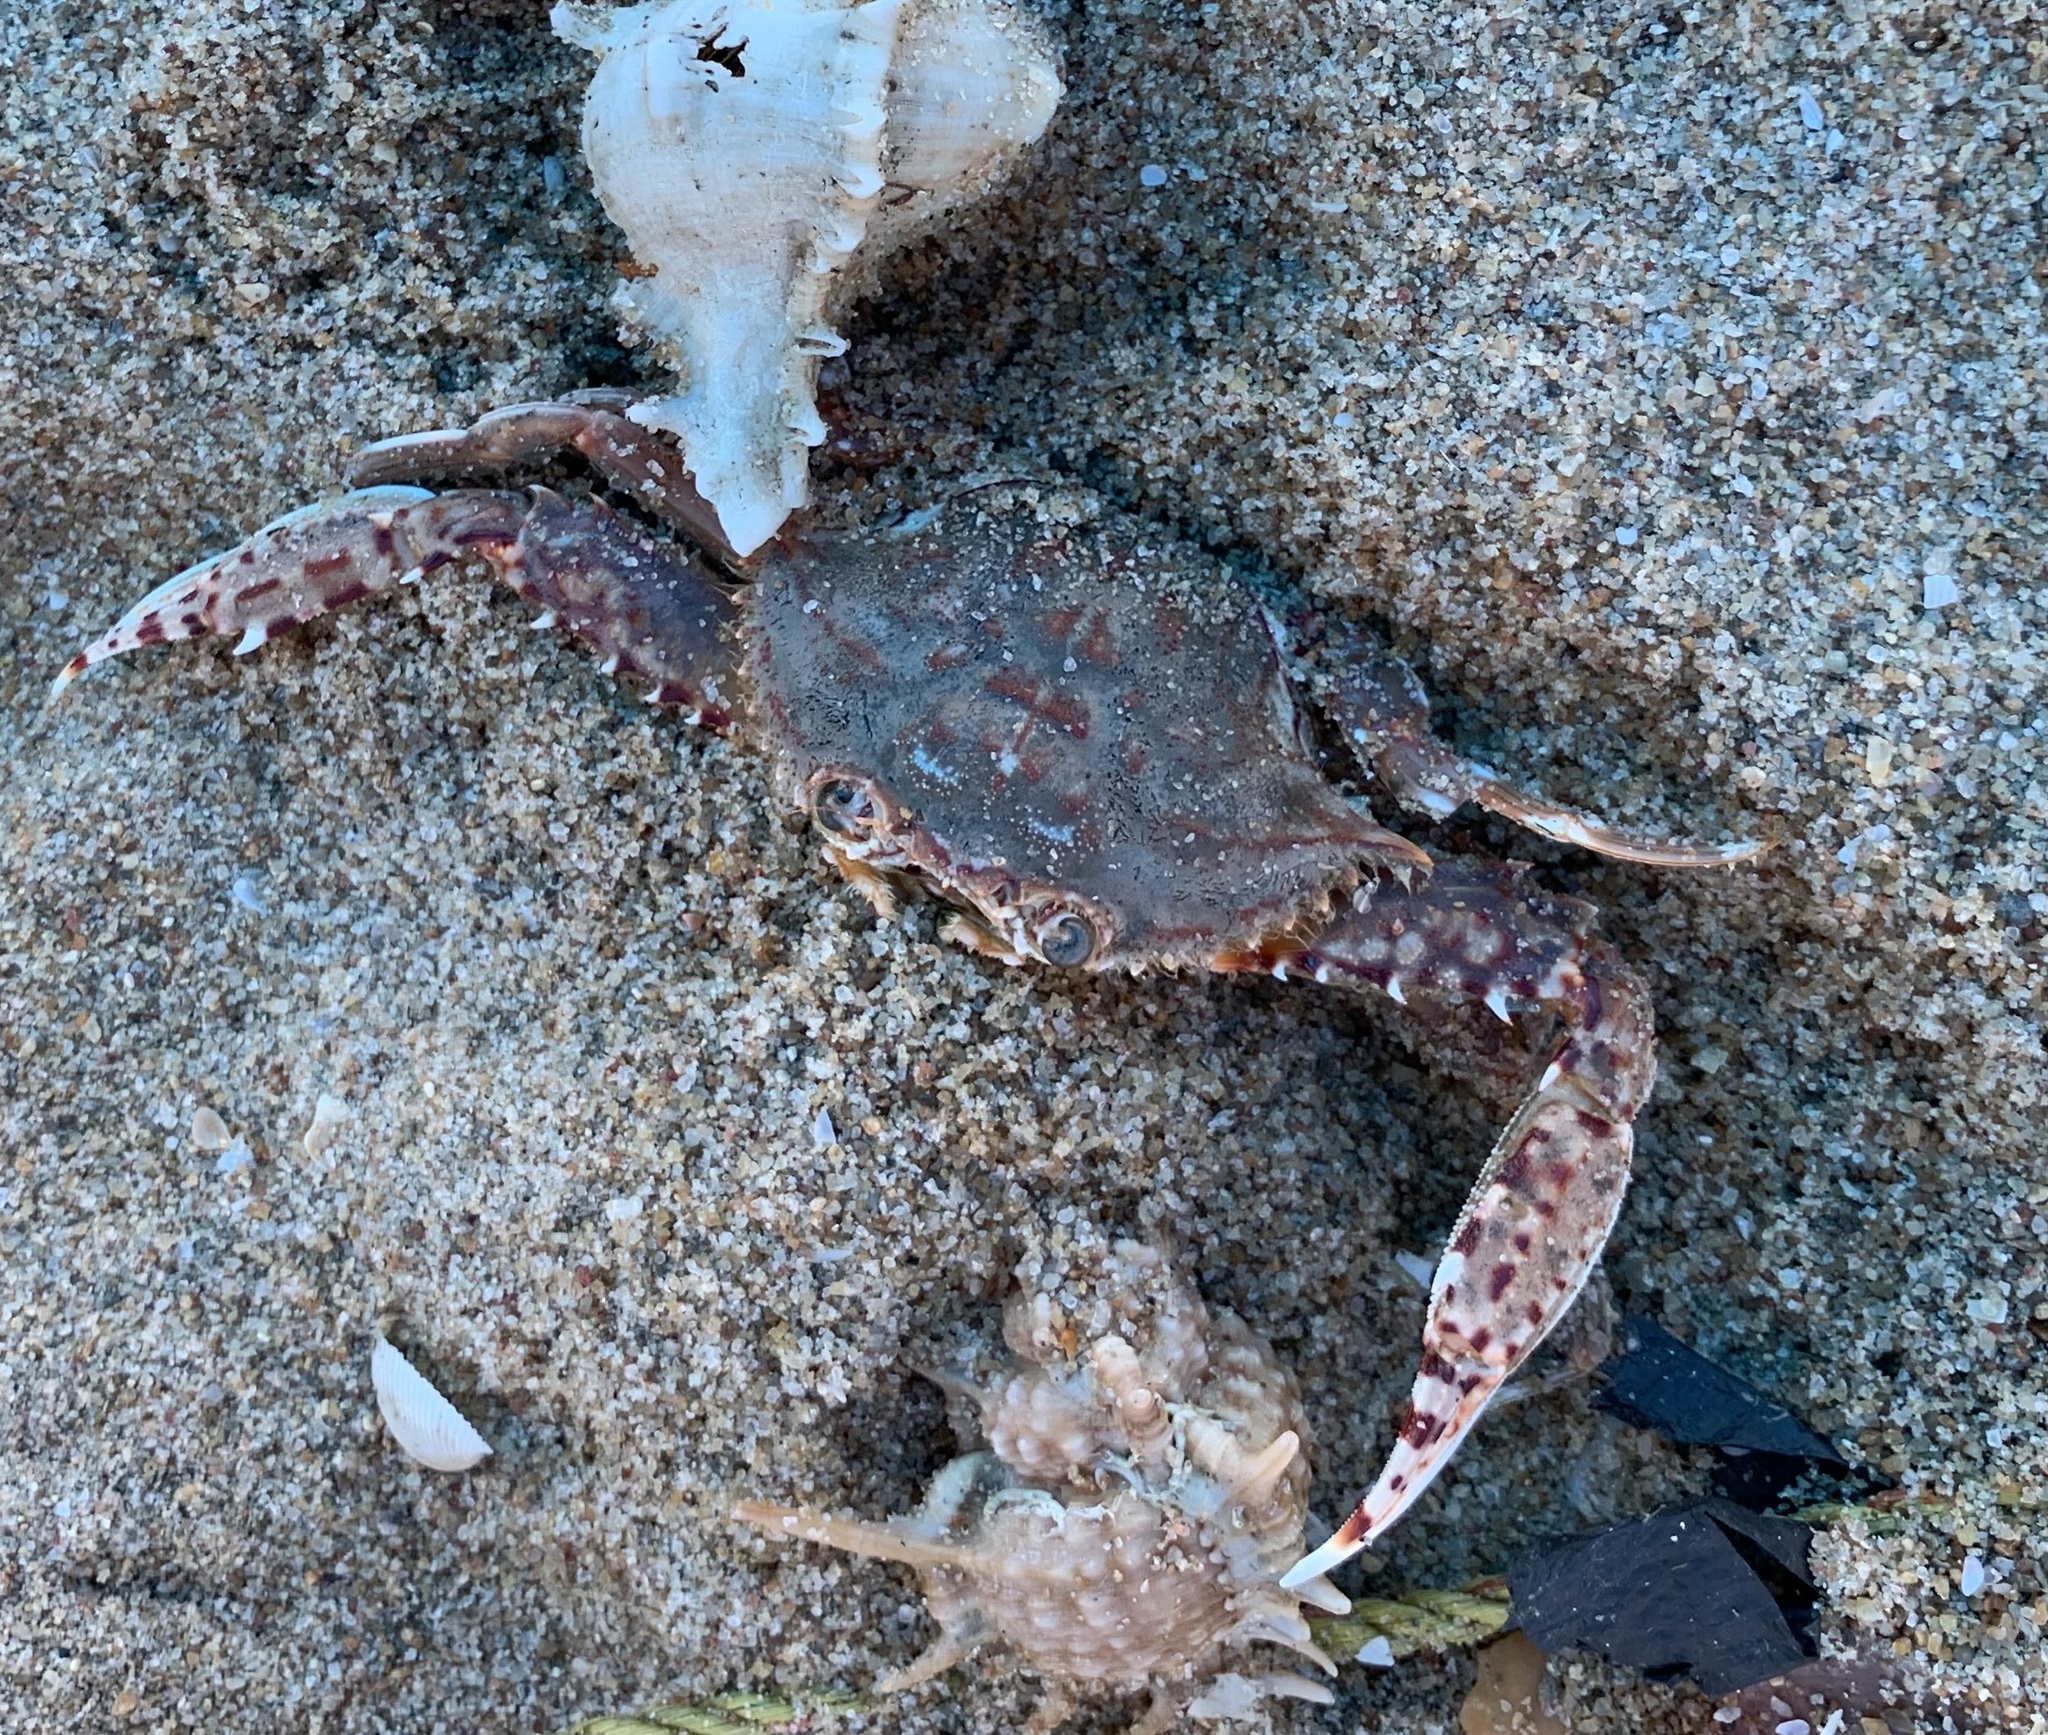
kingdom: Animalia
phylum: Arthropoda
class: Malacostraca
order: Decapoda
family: Portunidae
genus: Charybdis
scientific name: Charybdis feriata
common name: Striped swimming crab
